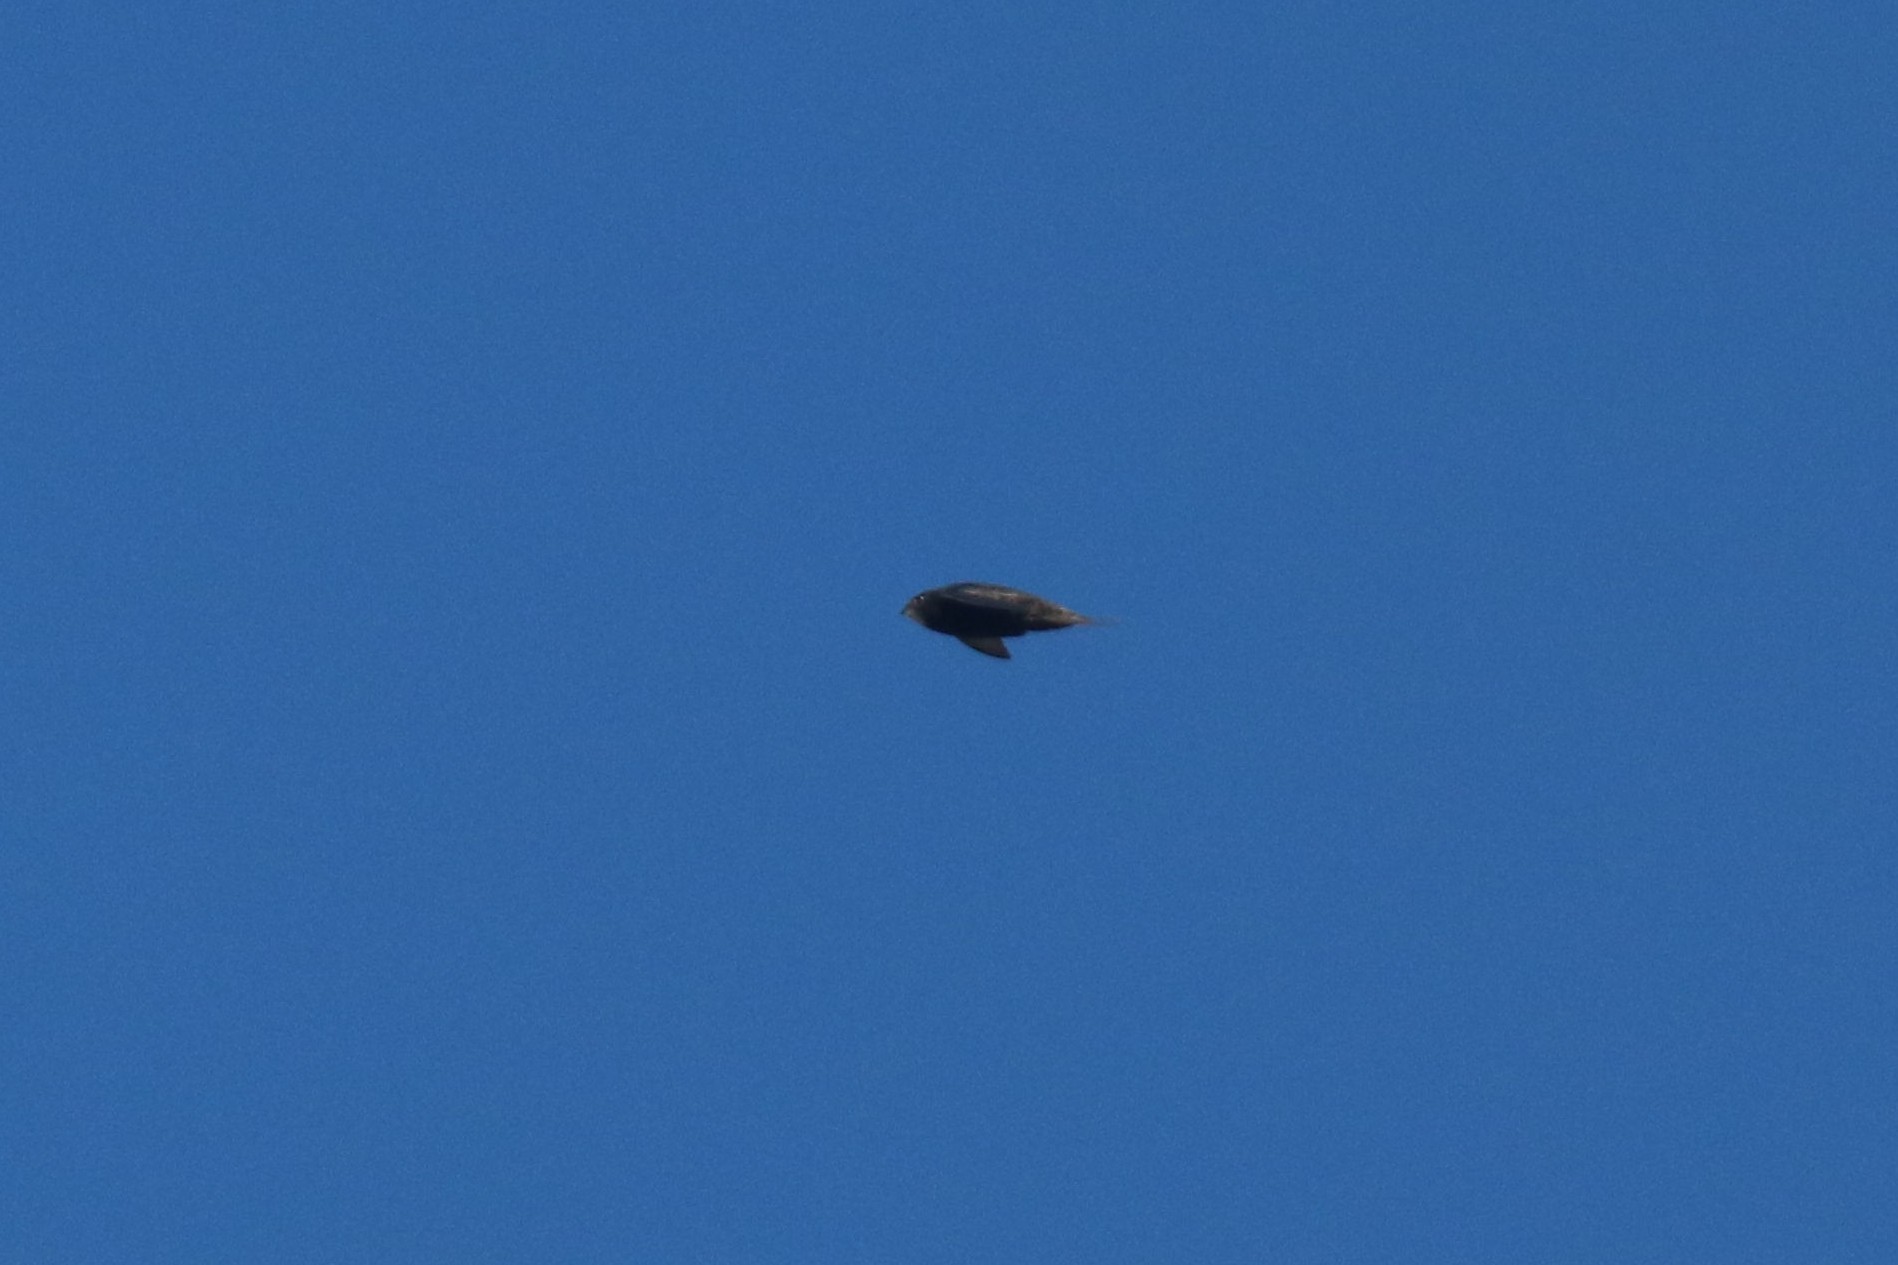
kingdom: Animalia
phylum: Chordata
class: Aves
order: Apodiformes
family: Apodidae
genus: Apus
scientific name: Apus apus
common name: Common swift
